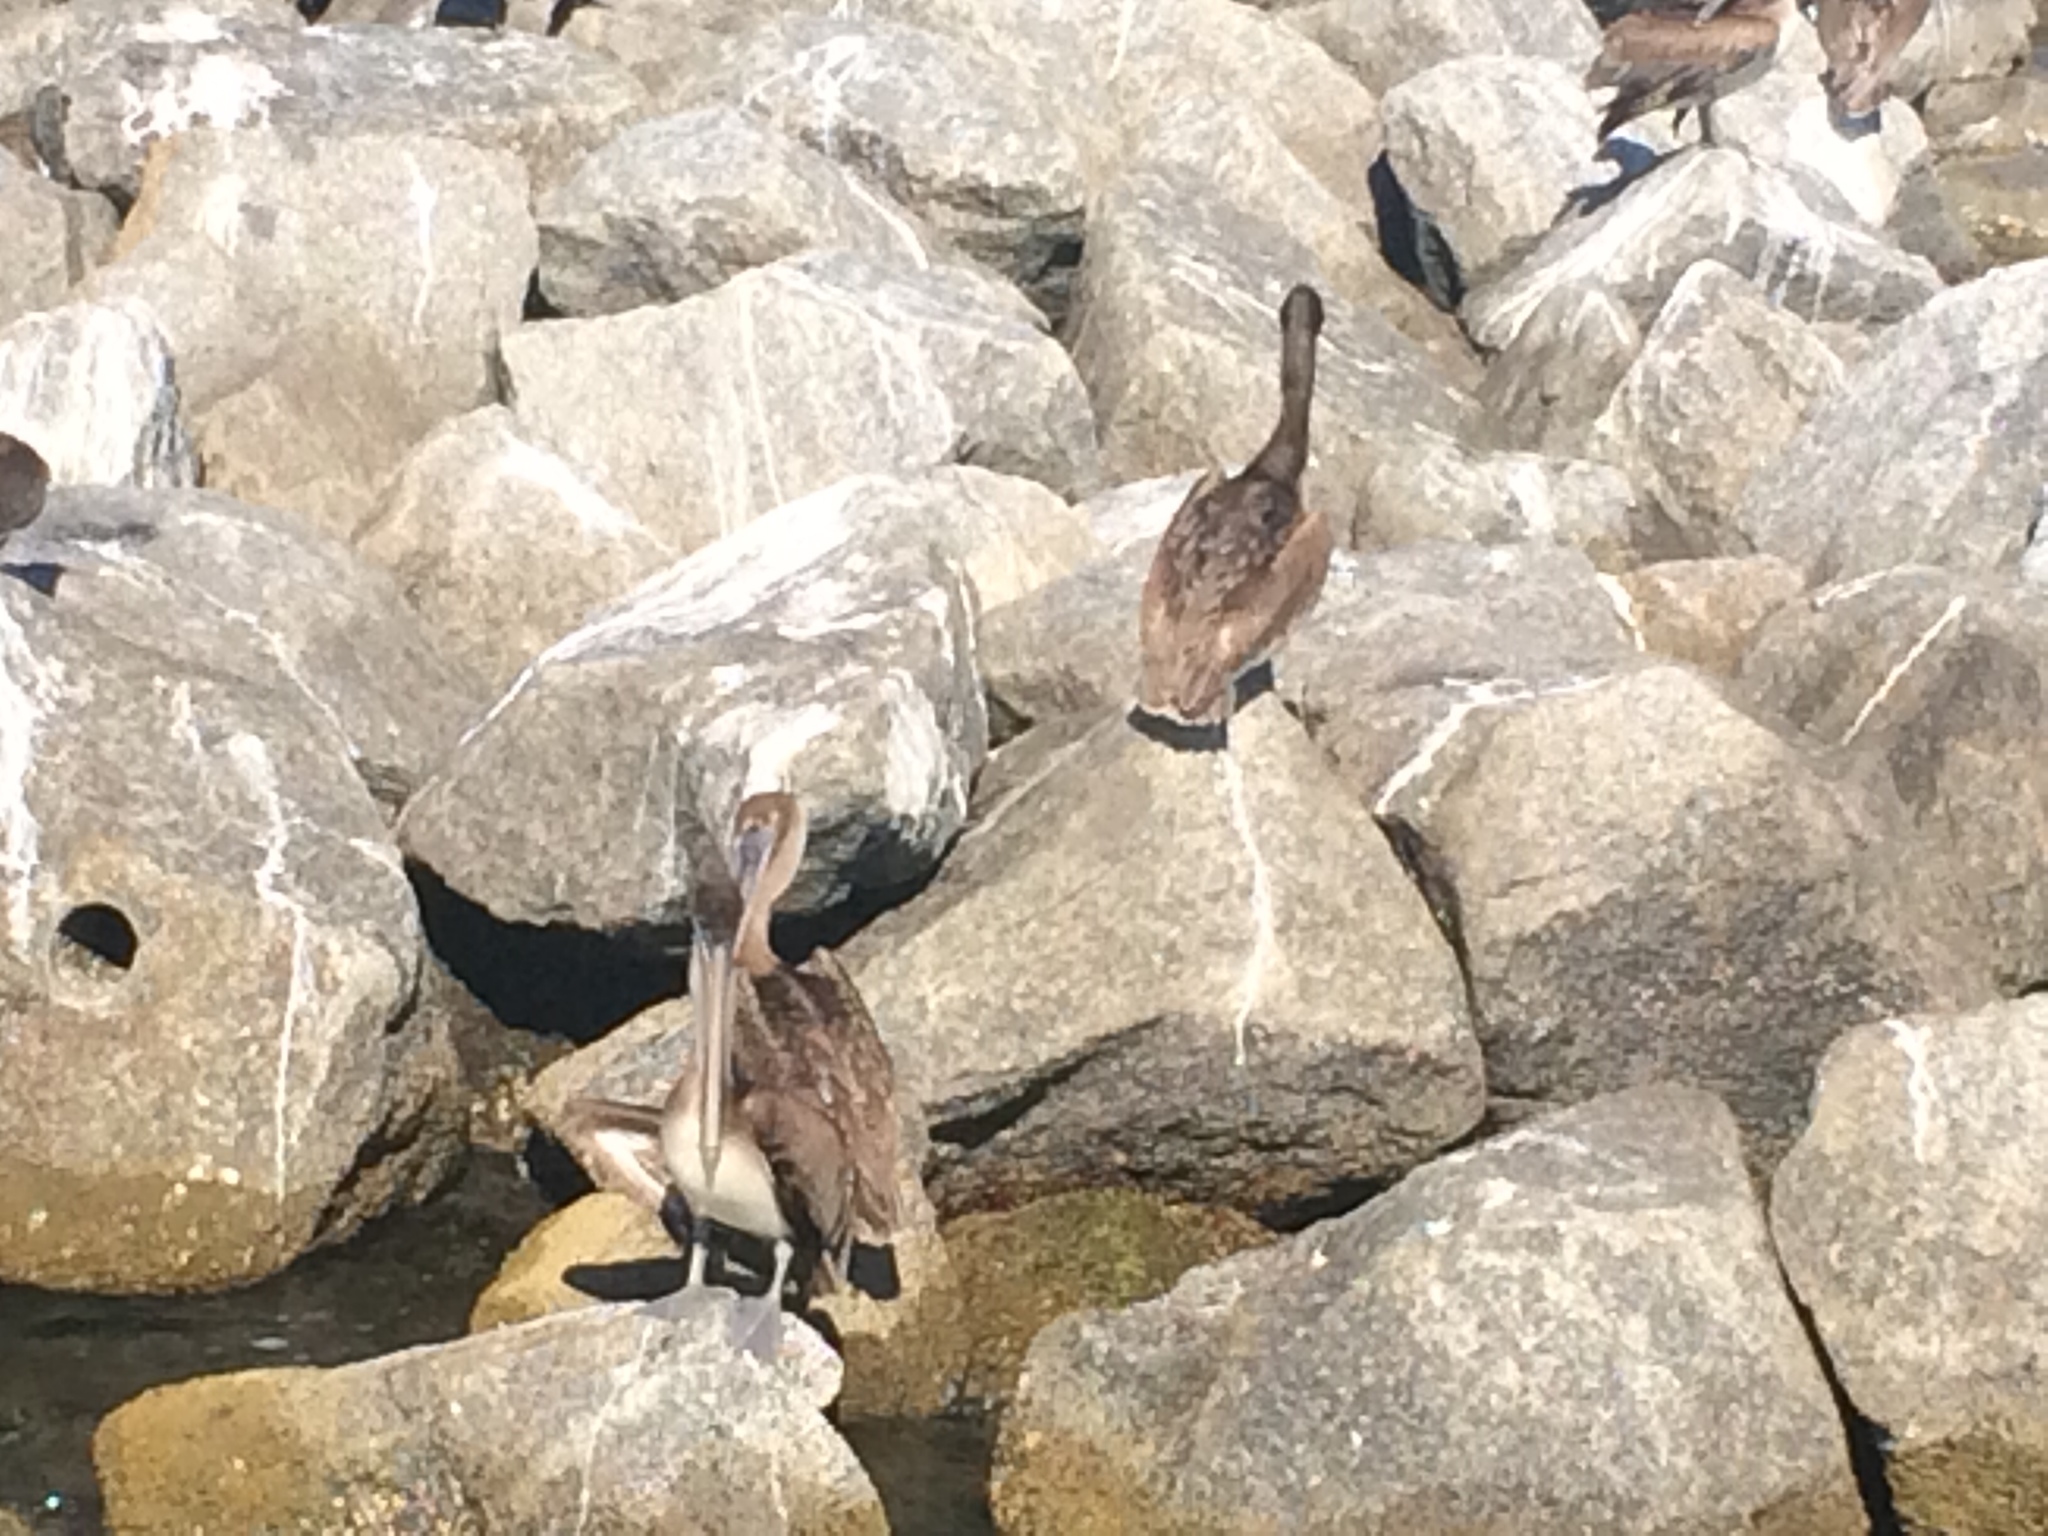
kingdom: Animalia
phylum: Chordata
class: Aves
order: Pelecaniformes
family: Pelecanidae
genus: Pelecanus
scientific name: Pelecanus occidentalis
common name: Brown pelican
